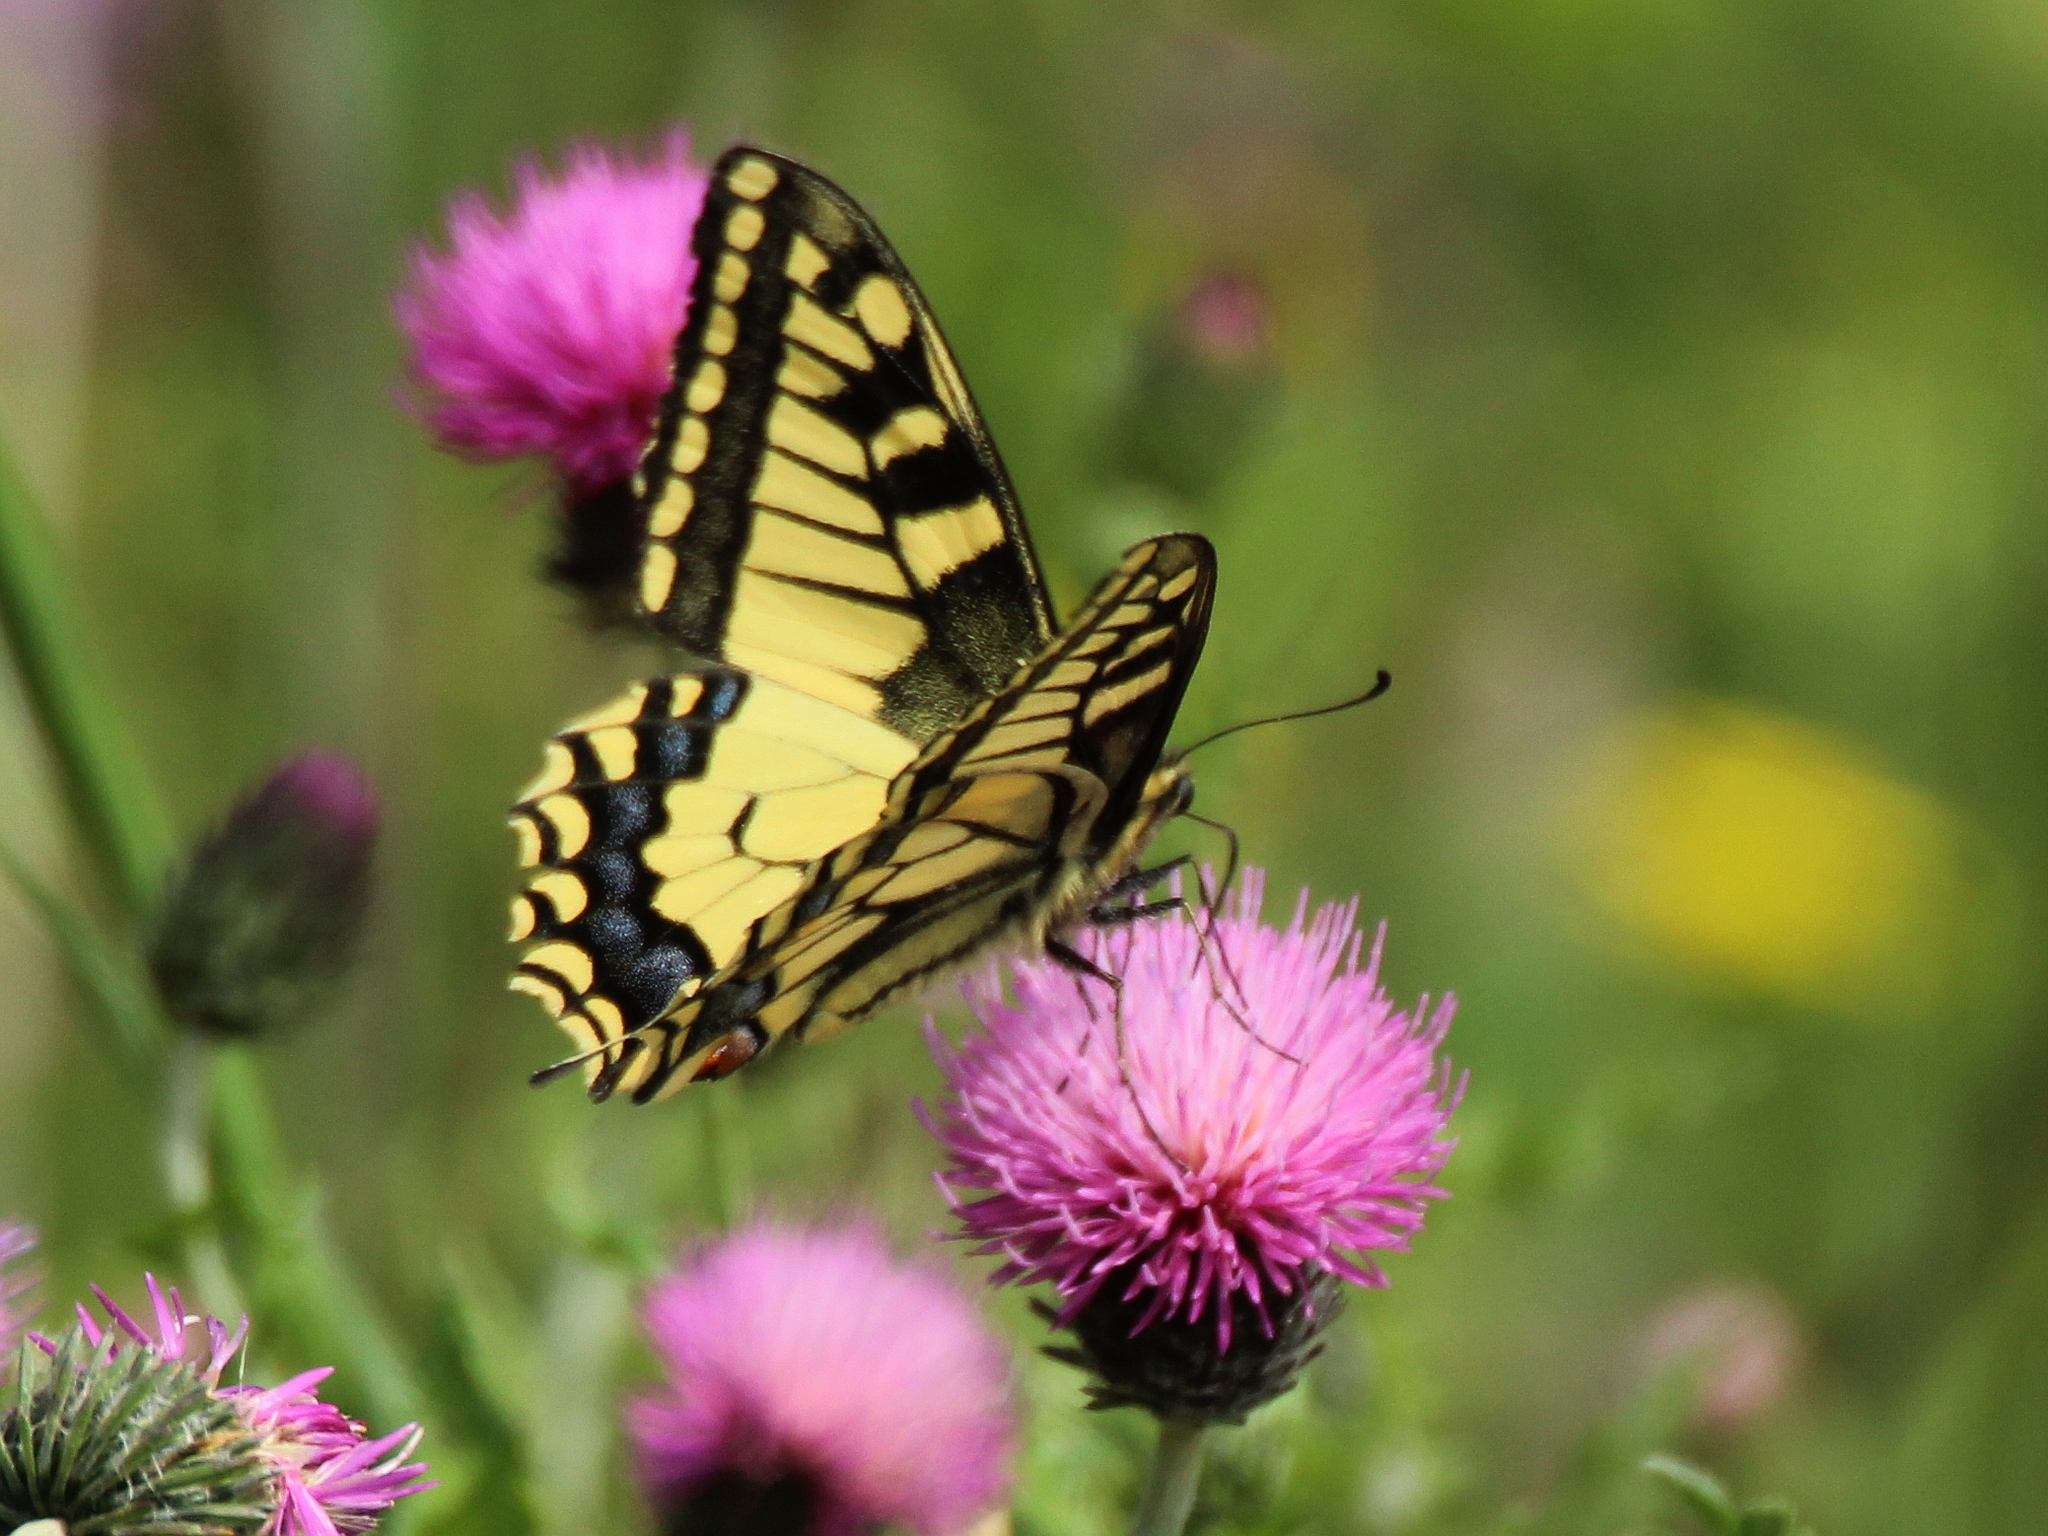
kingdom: Animalia
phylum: Arthropoda
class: Insecta
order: Lepidoptera
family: Papilionidae
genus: Papilio
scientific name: Papilio machaon
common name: Swallowtail
